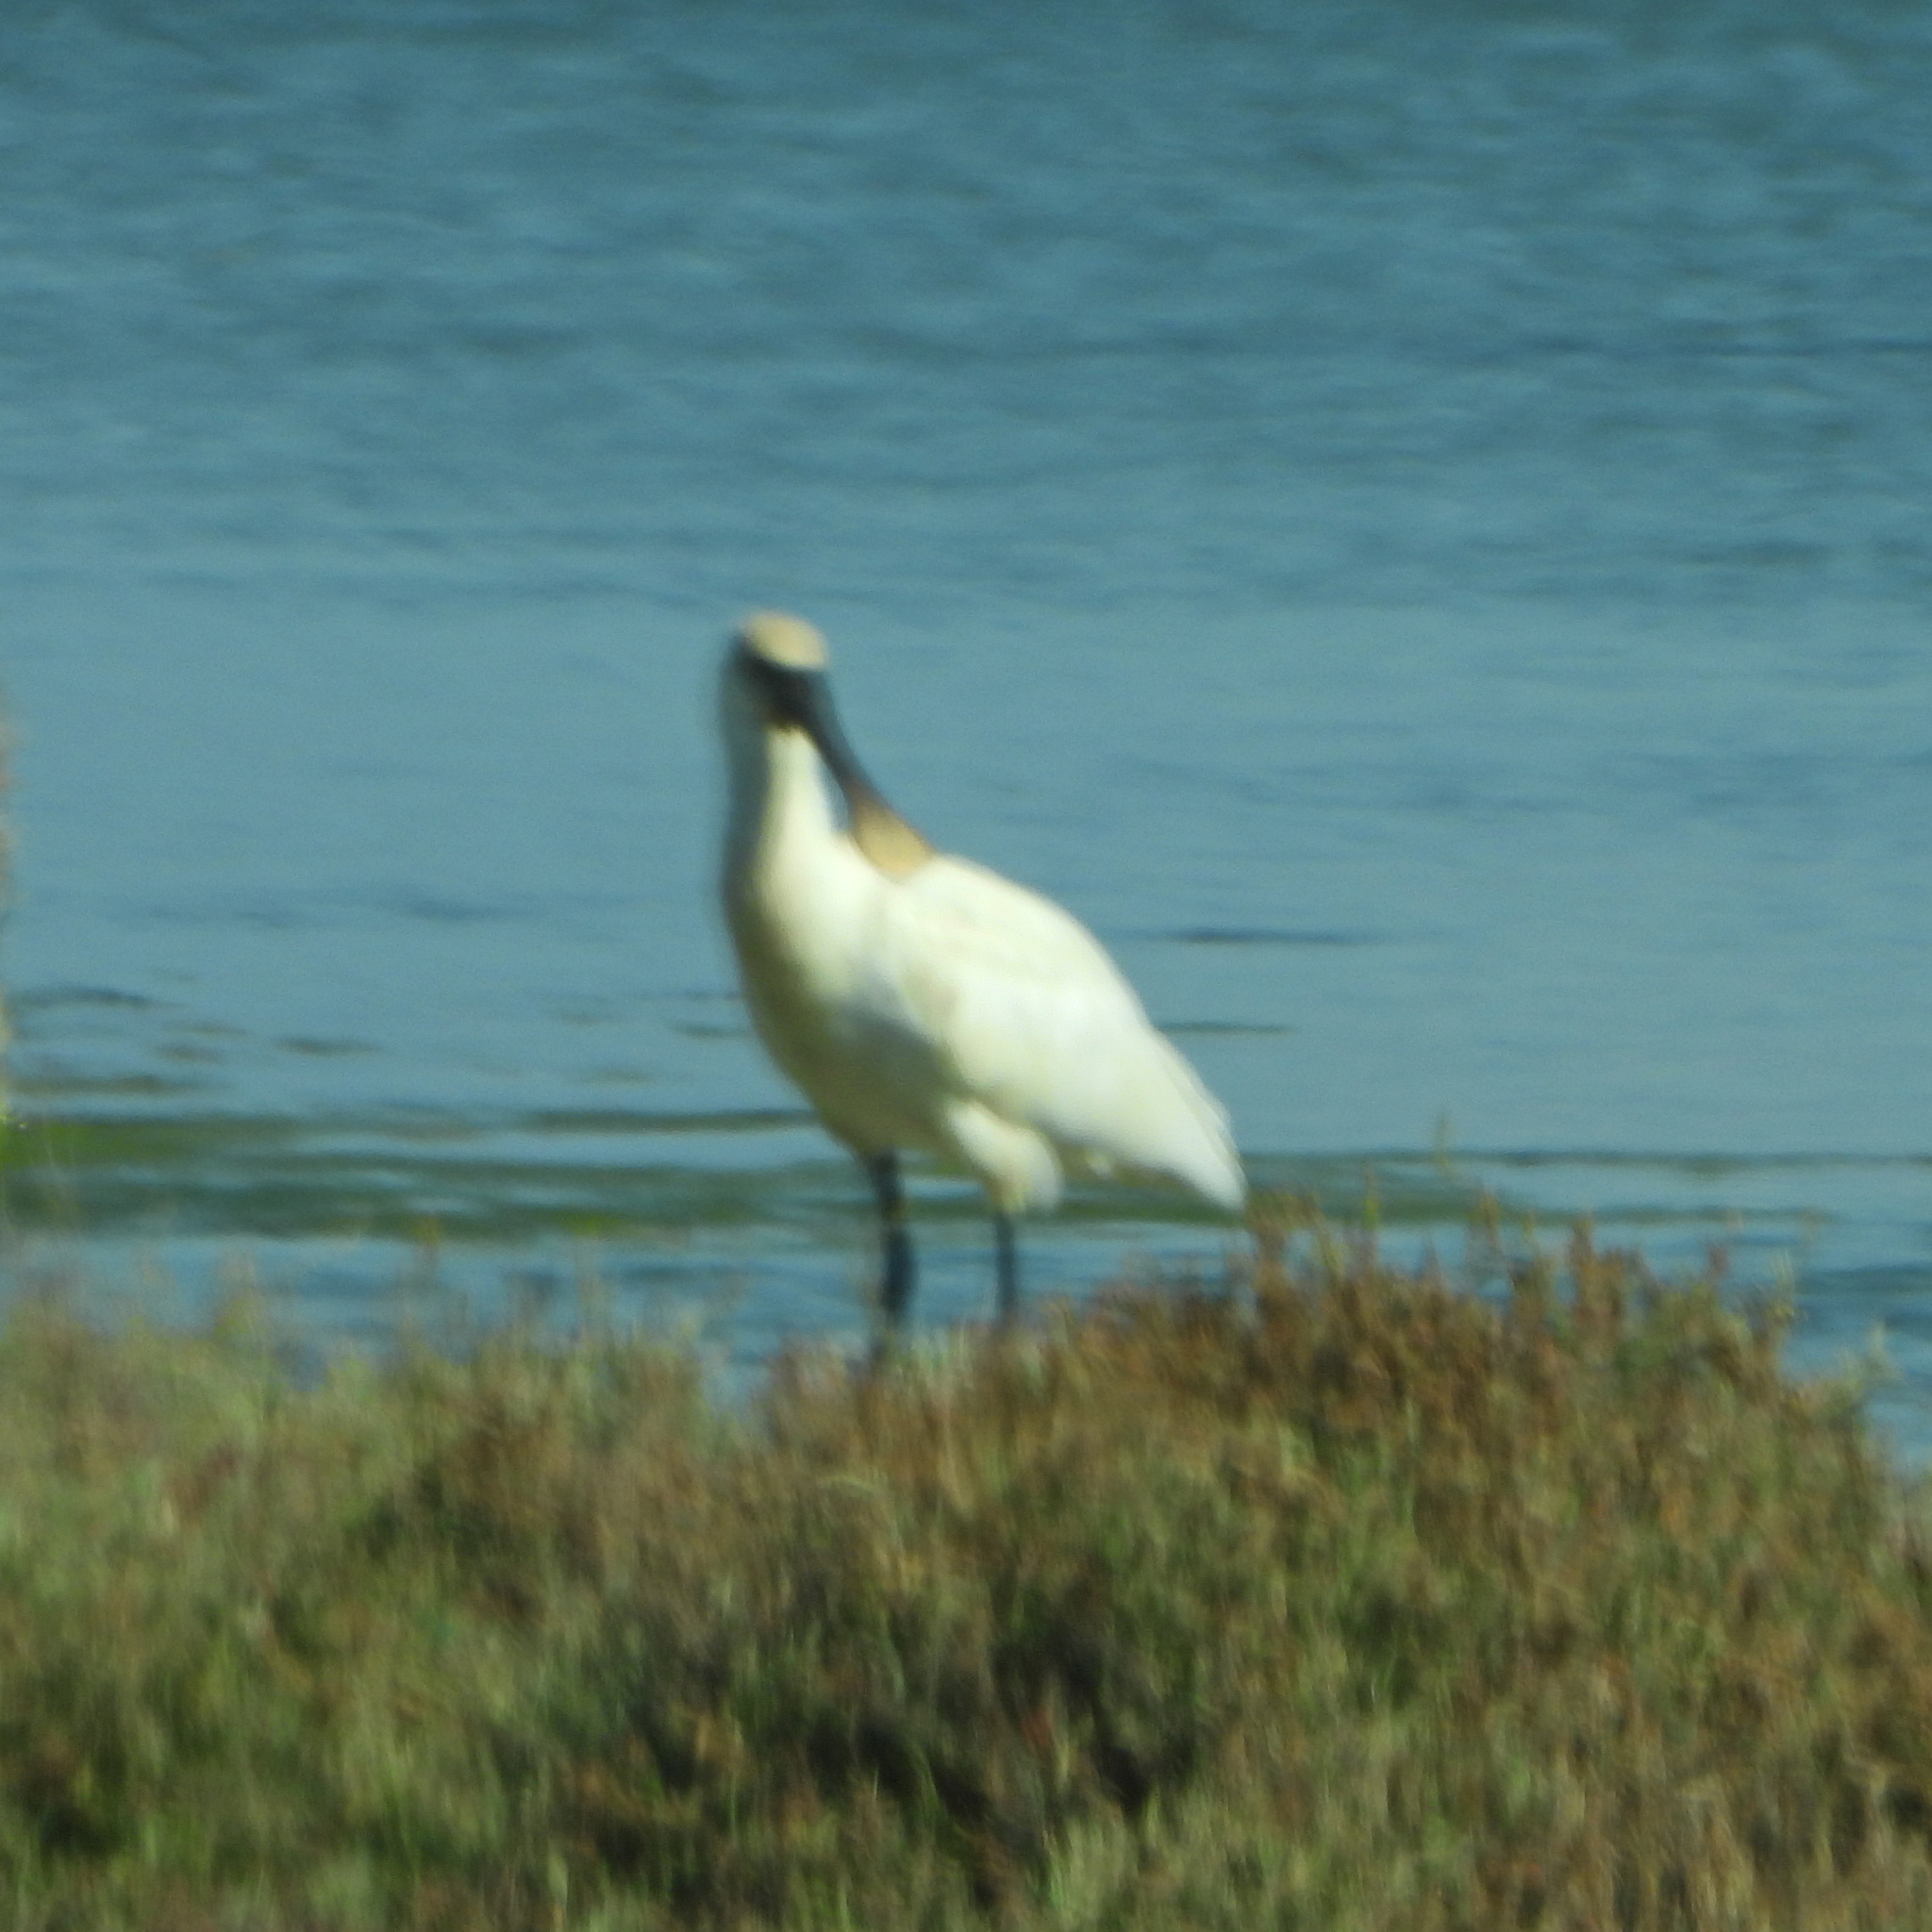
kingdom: Animalia
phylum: Chordata
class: Aves
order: Pelecaniformes
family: Threskiornithidae
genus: Platalea
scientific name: Platalea leucorodia
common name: Eurasian spoonbill
